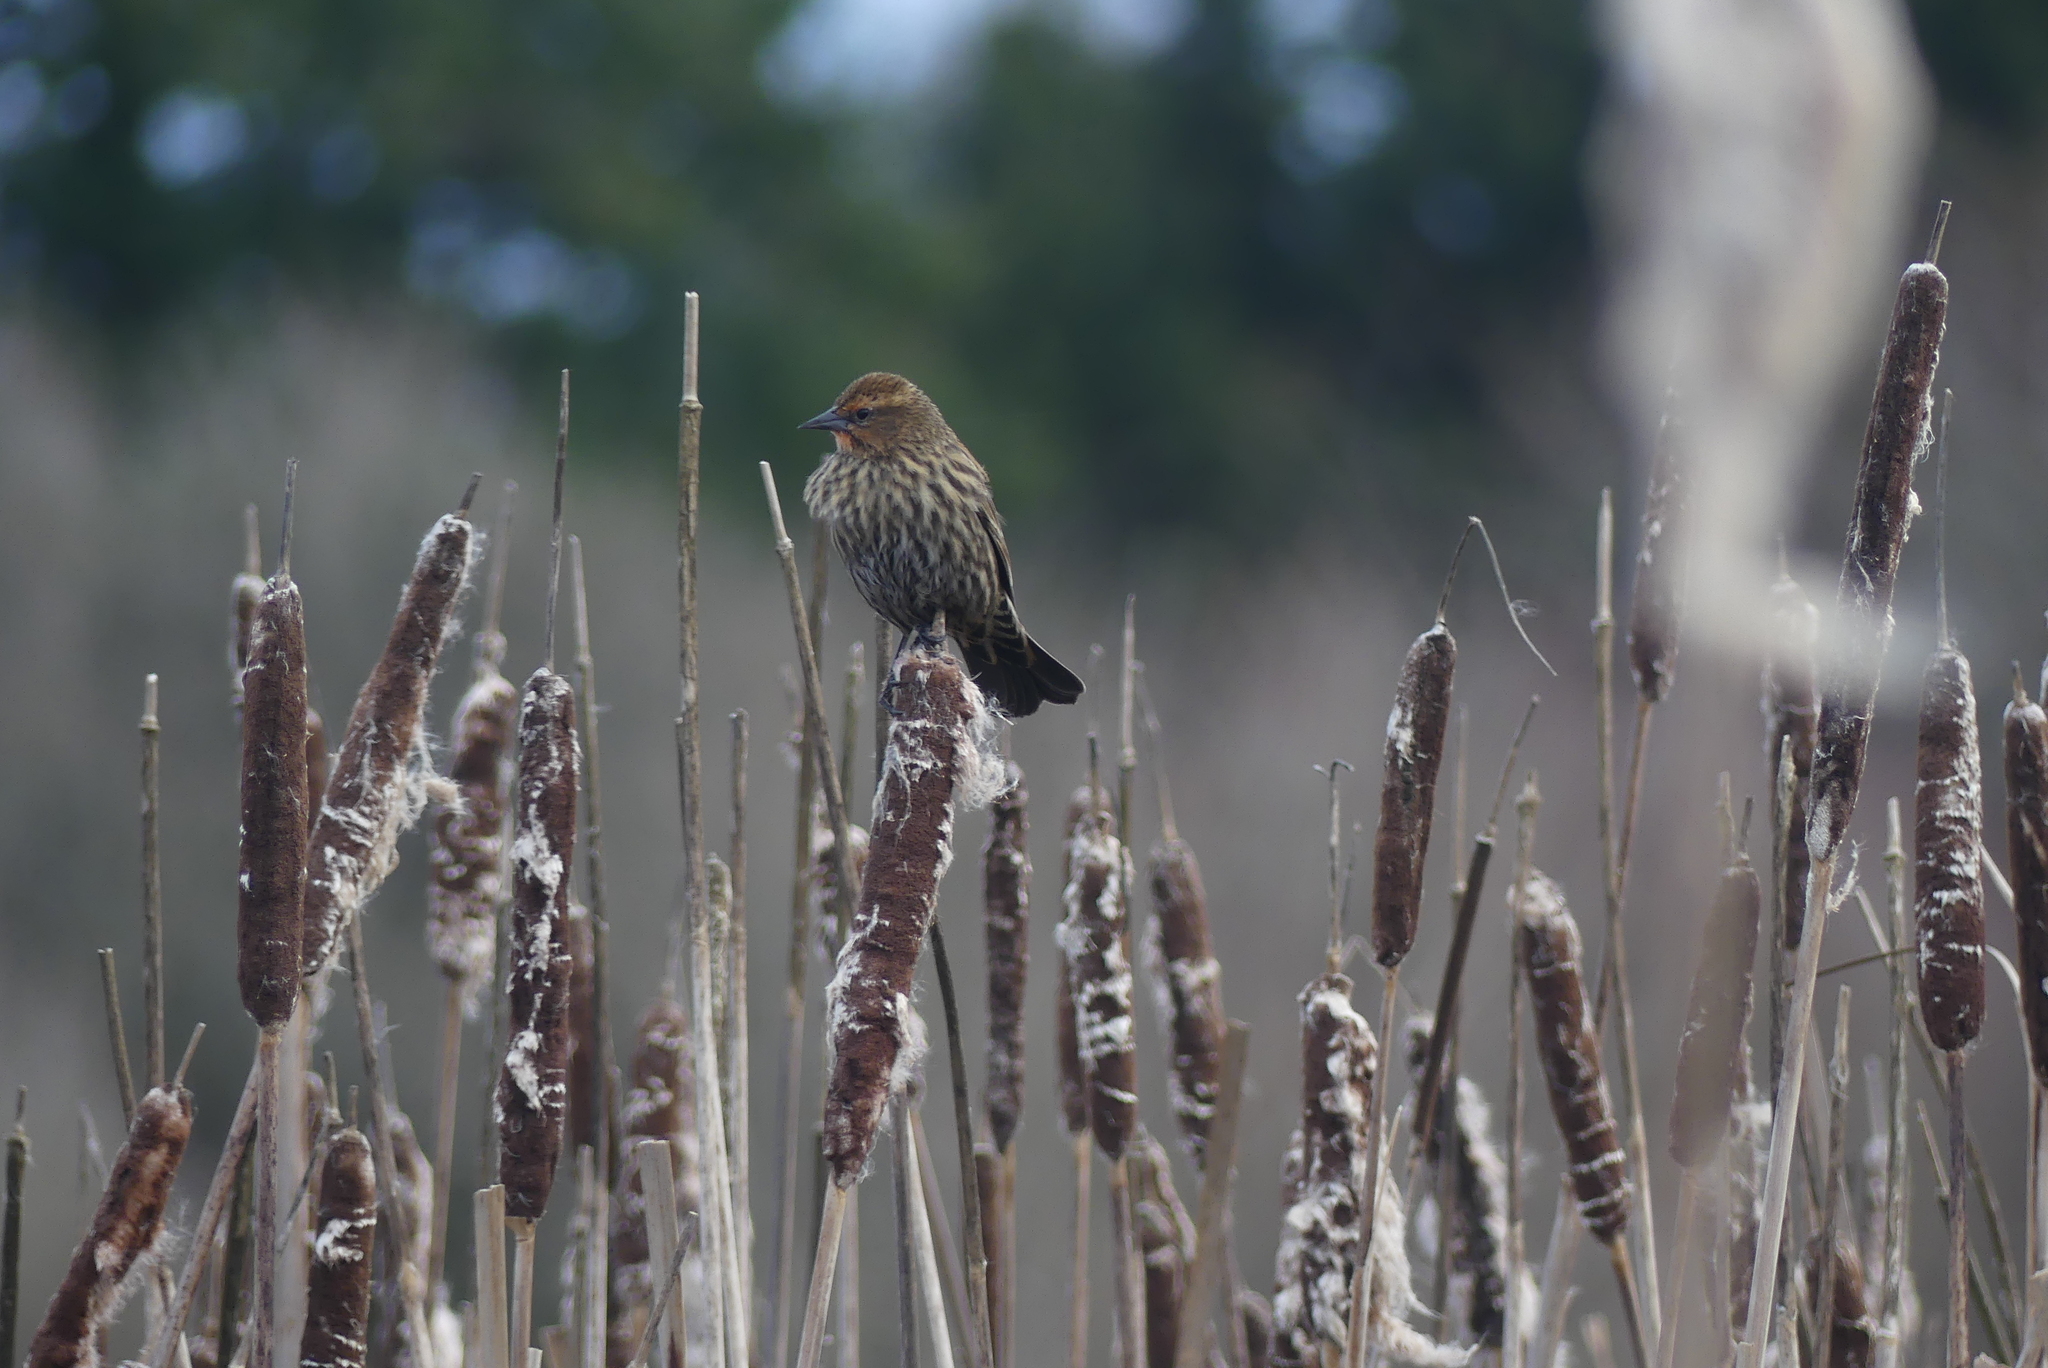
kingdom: Animalia
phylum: Chordata
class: Aves
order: Passeriformes
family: Icteridae
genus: Agelaius
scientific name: Agelaius phoeniceus
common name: Red-winged blackbird
